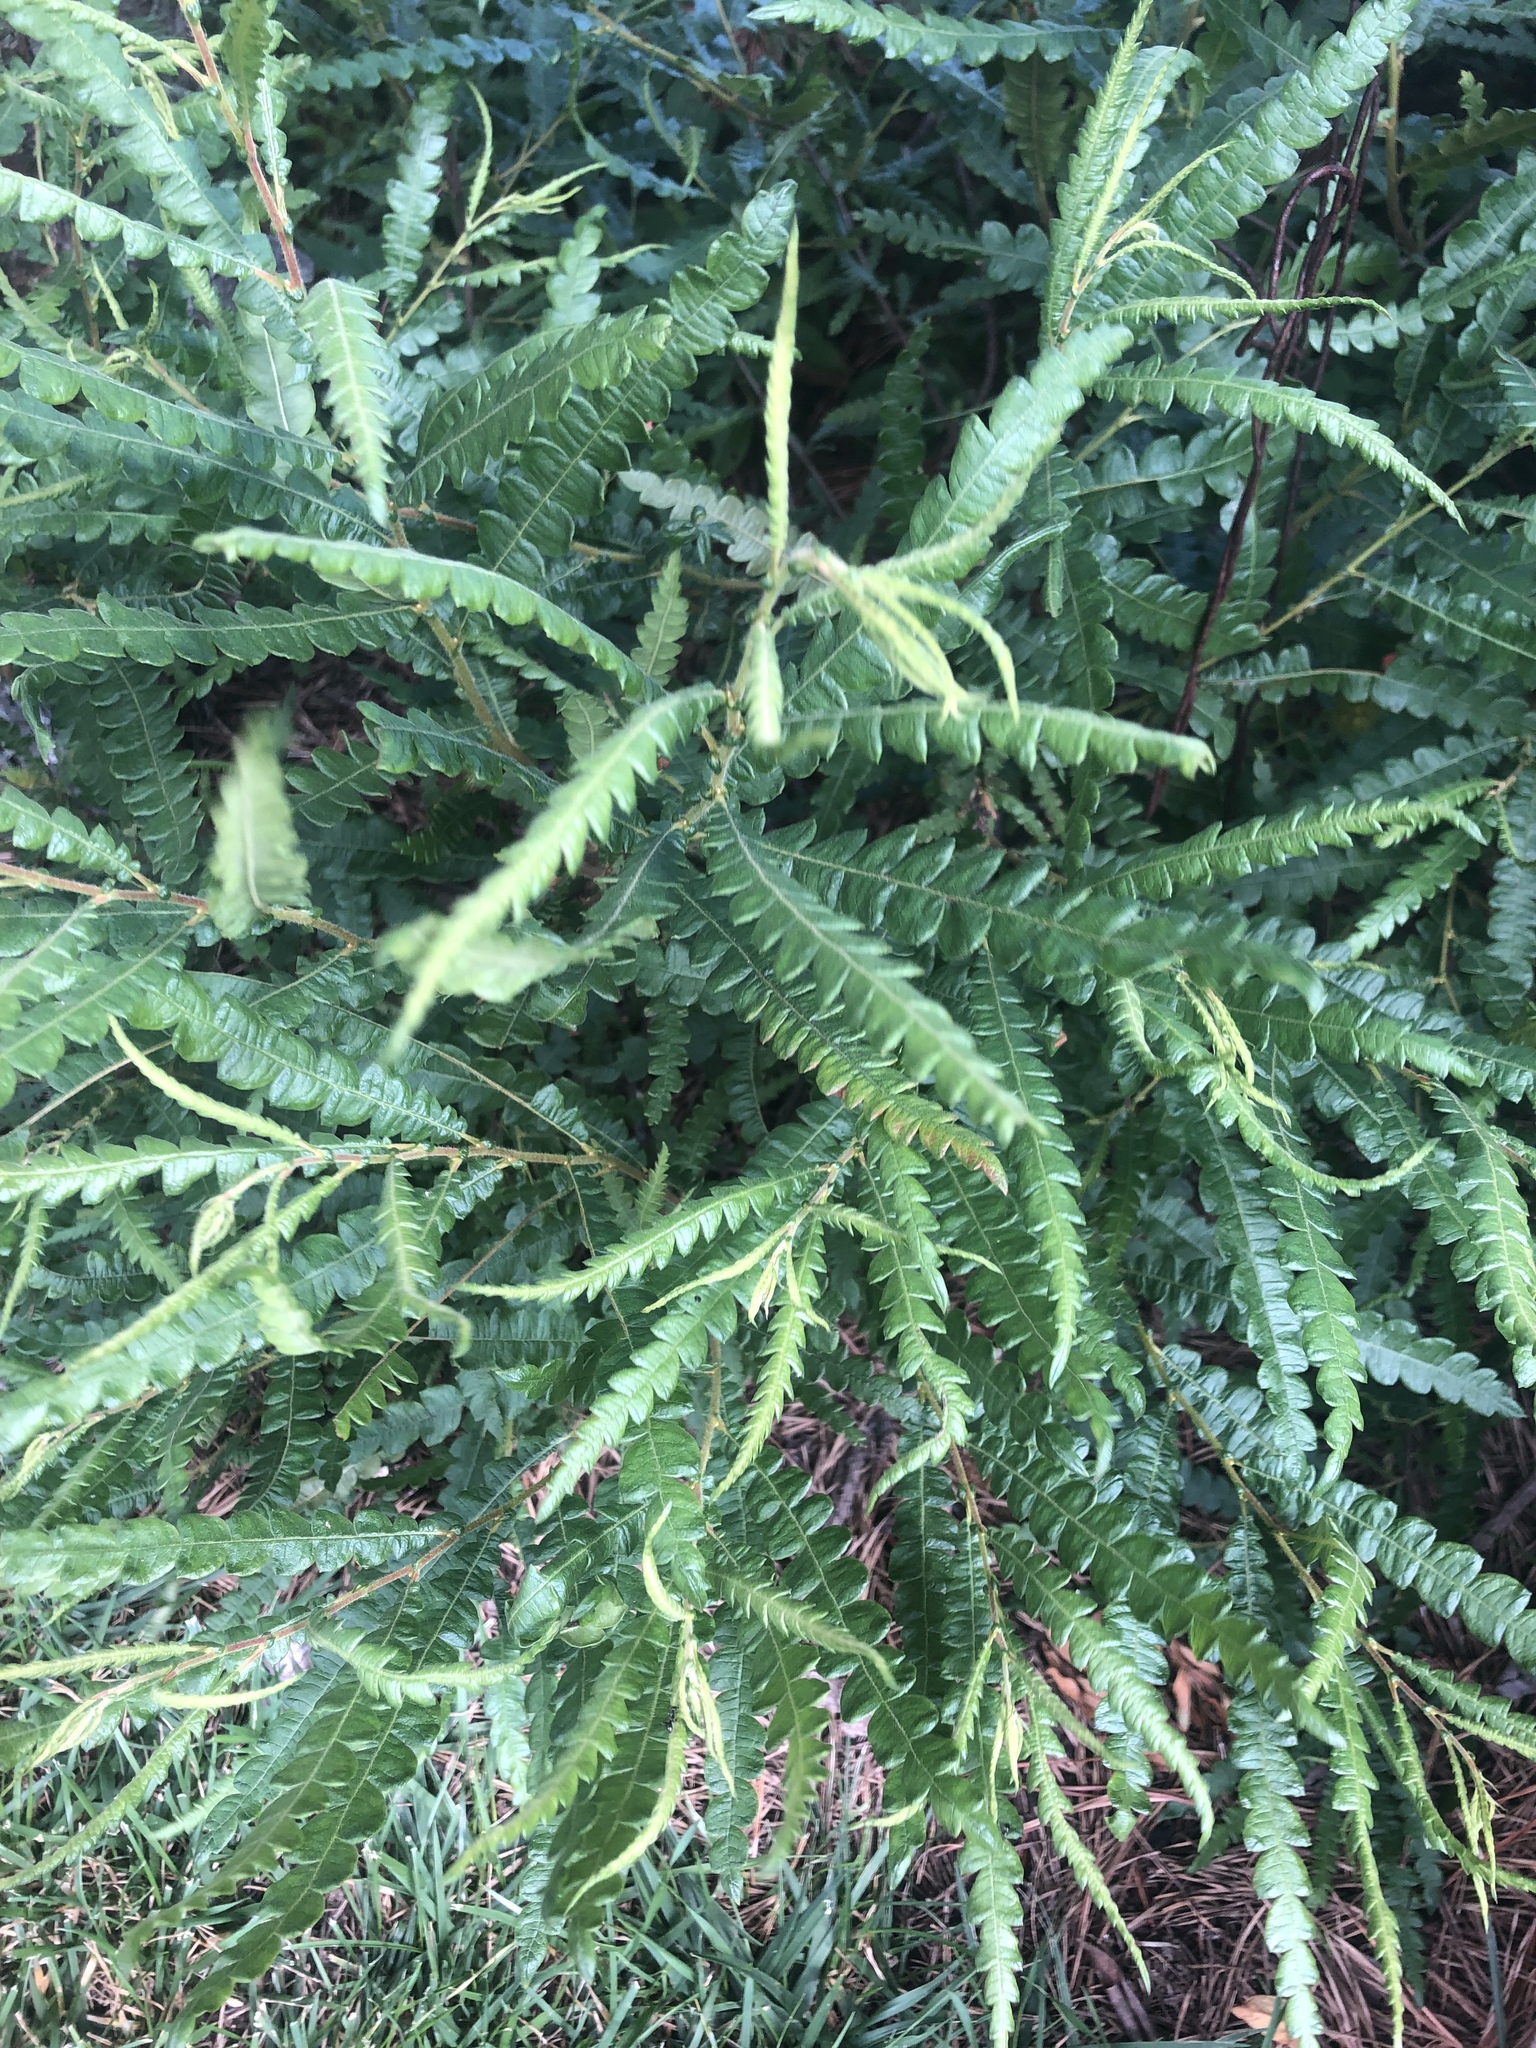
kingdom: Plantae
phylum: Tracheophyta
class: Magnoliopsida
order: Fagales
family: Myricaceae
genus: Comptonia
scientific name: Comptonia peregrina
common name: Sweet-fern
